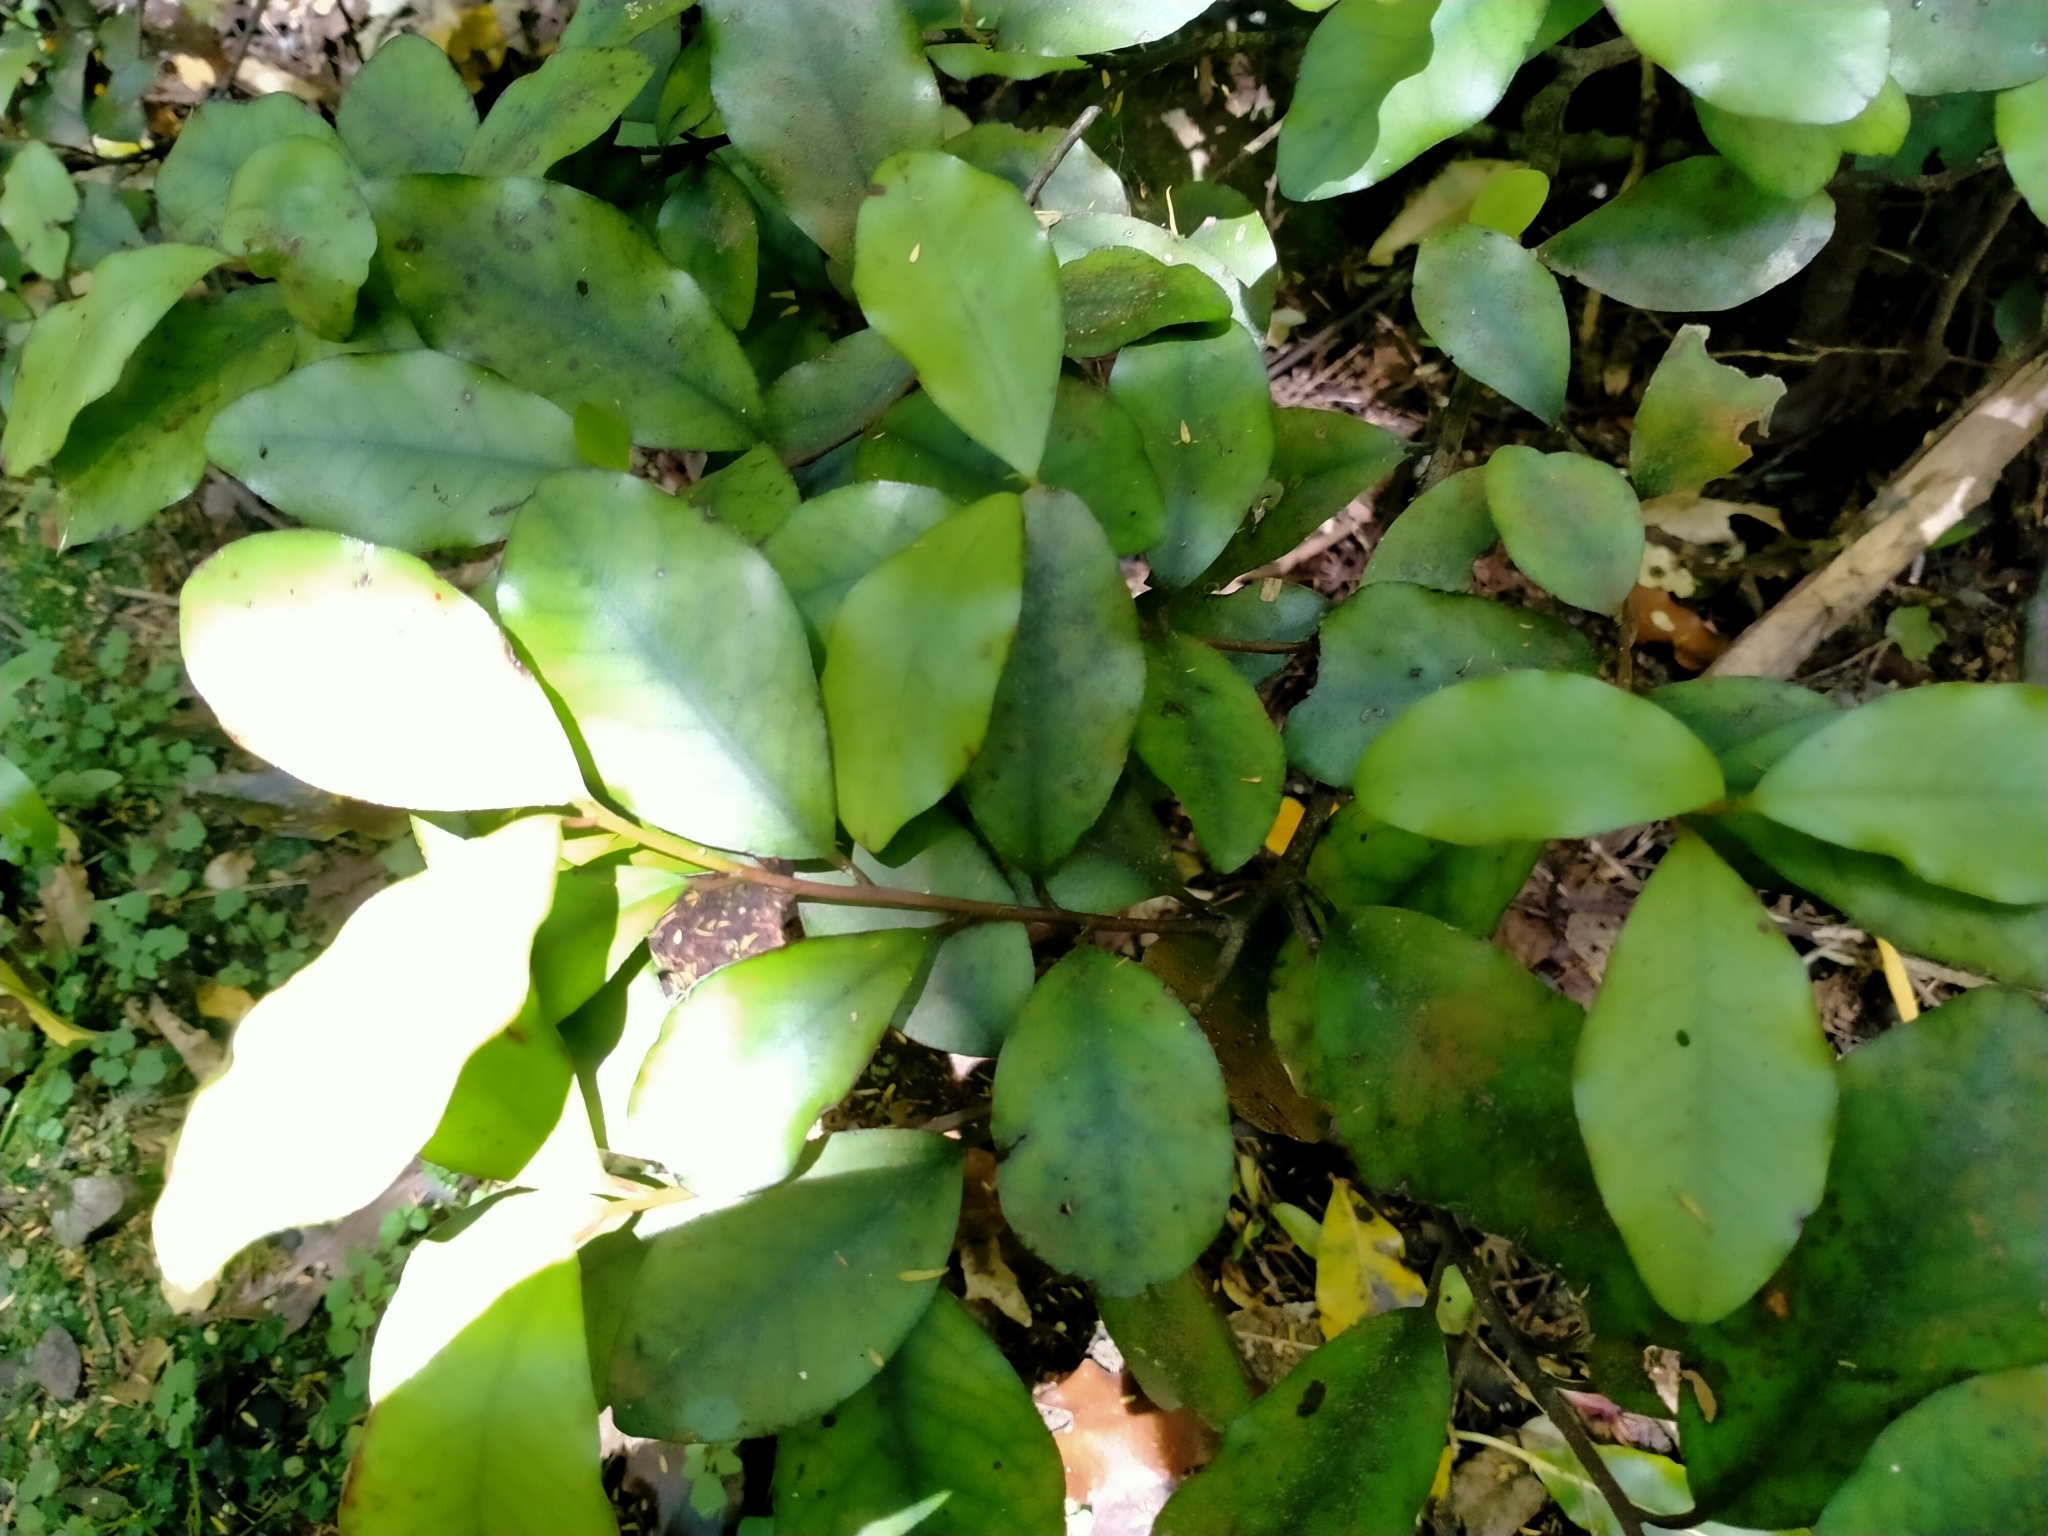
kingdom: Plantae
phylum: Tracheophyta
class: Magnoliopsida
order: Canellales
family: Winteraceae
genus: Pseudowintera
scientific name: Pseudowintera colorata
